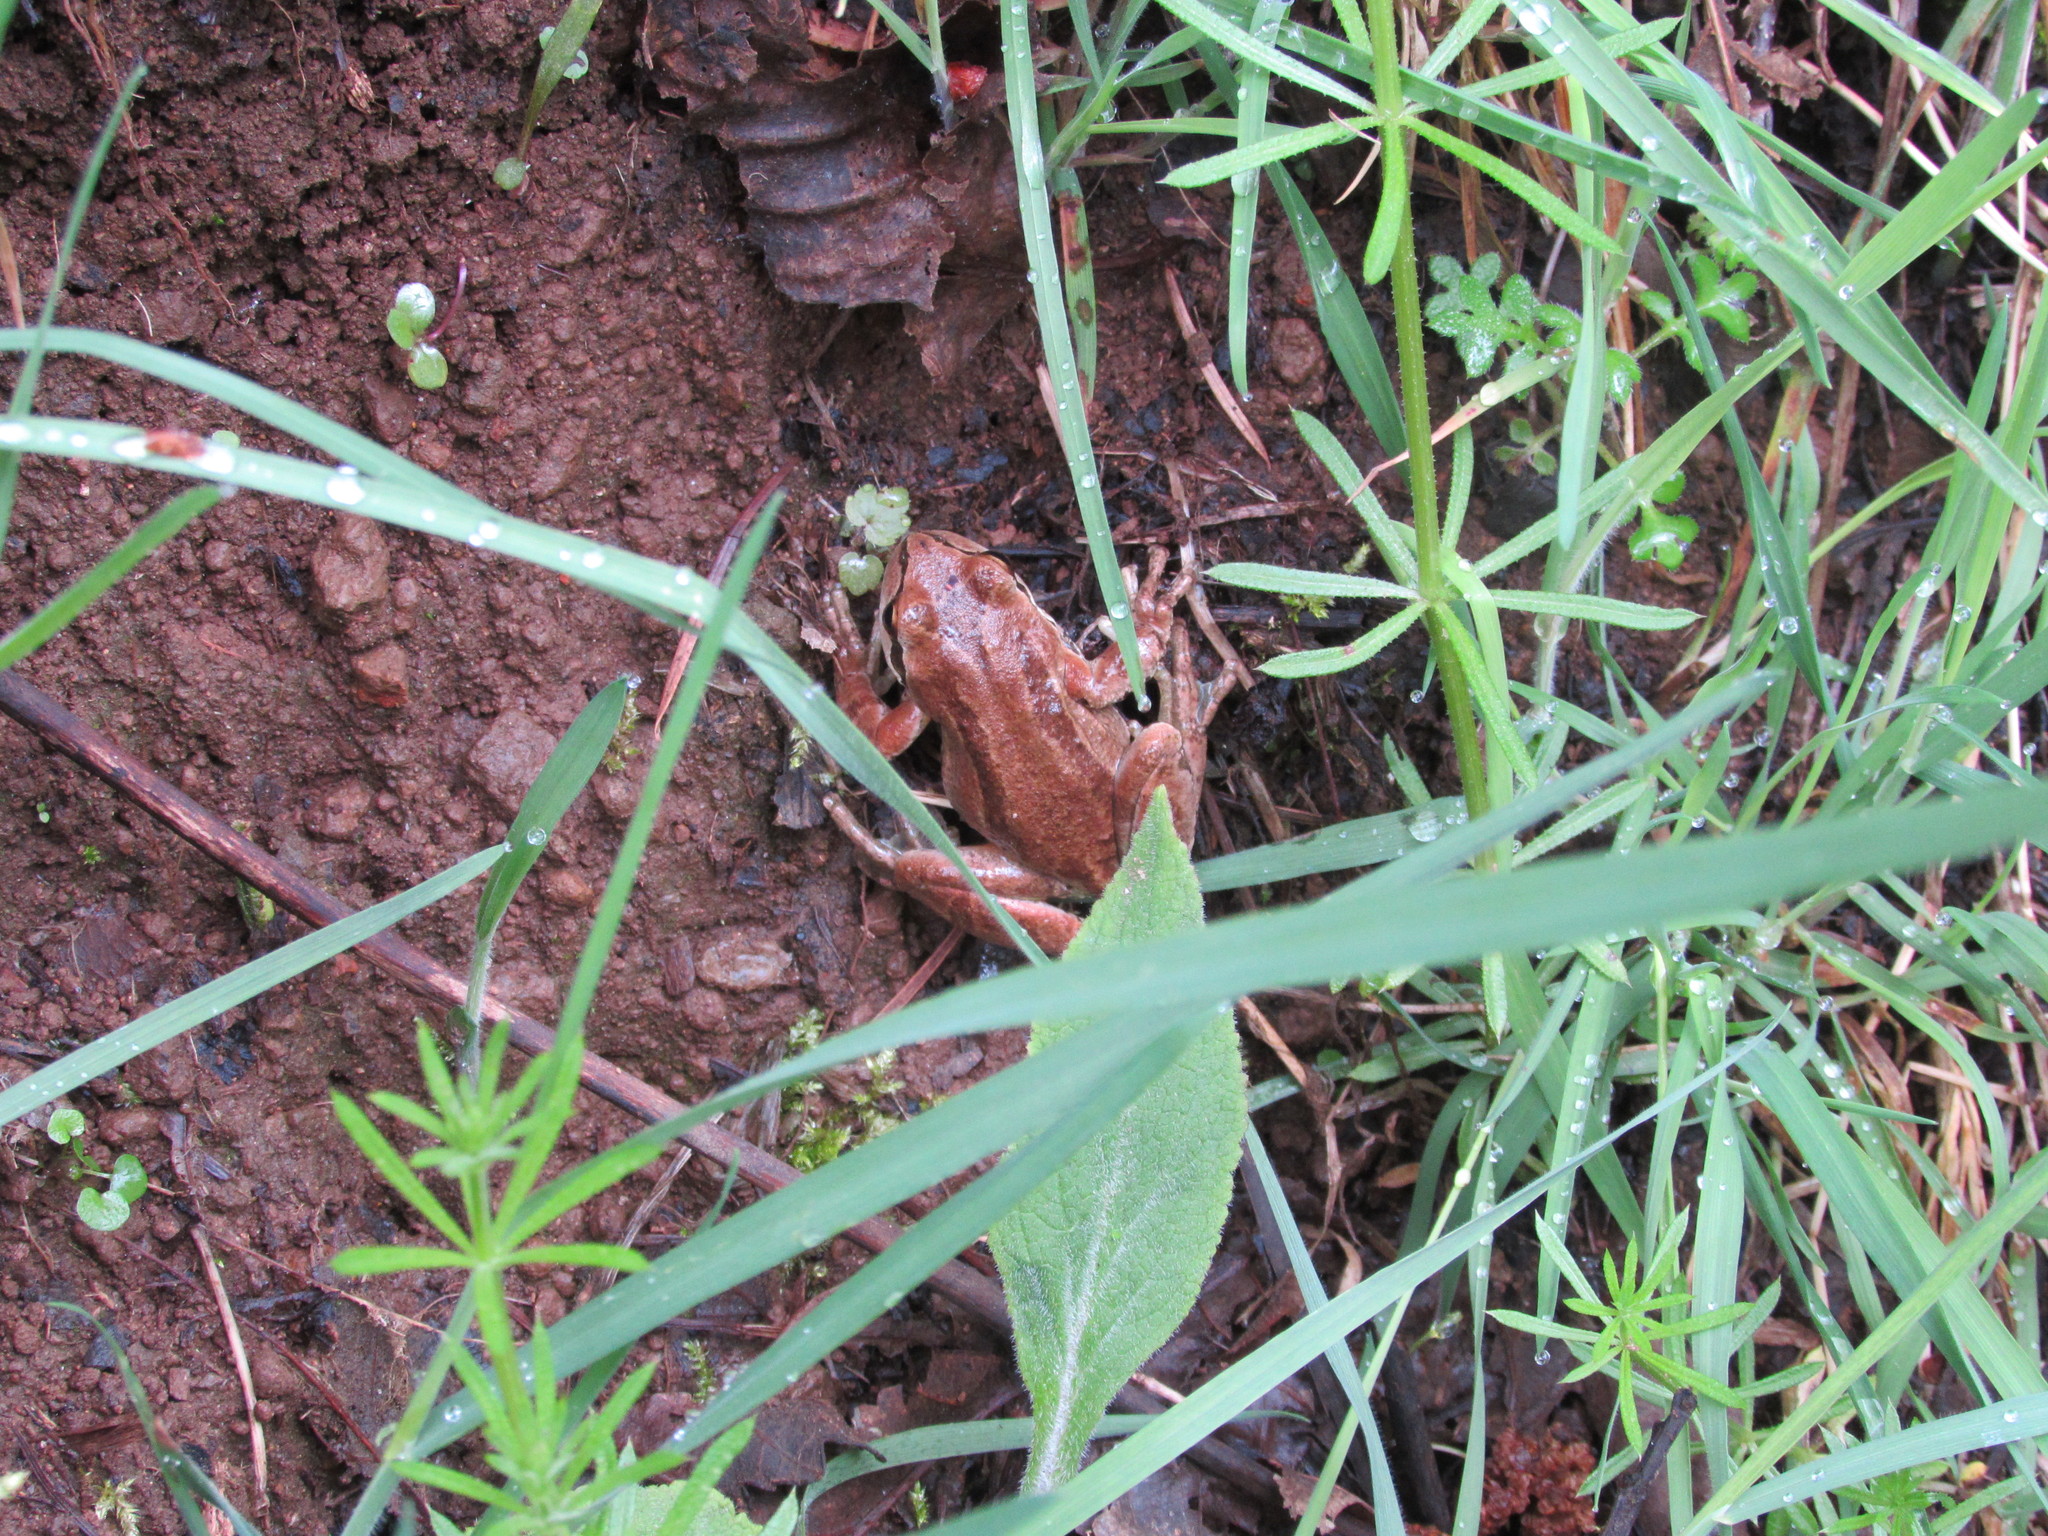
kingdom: Animalia
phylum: Chordata
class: Amphibia
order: Anura
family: Hylidae
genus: Pseudacris
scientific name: Pseudacris regilla
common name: Pacific chorus frog
